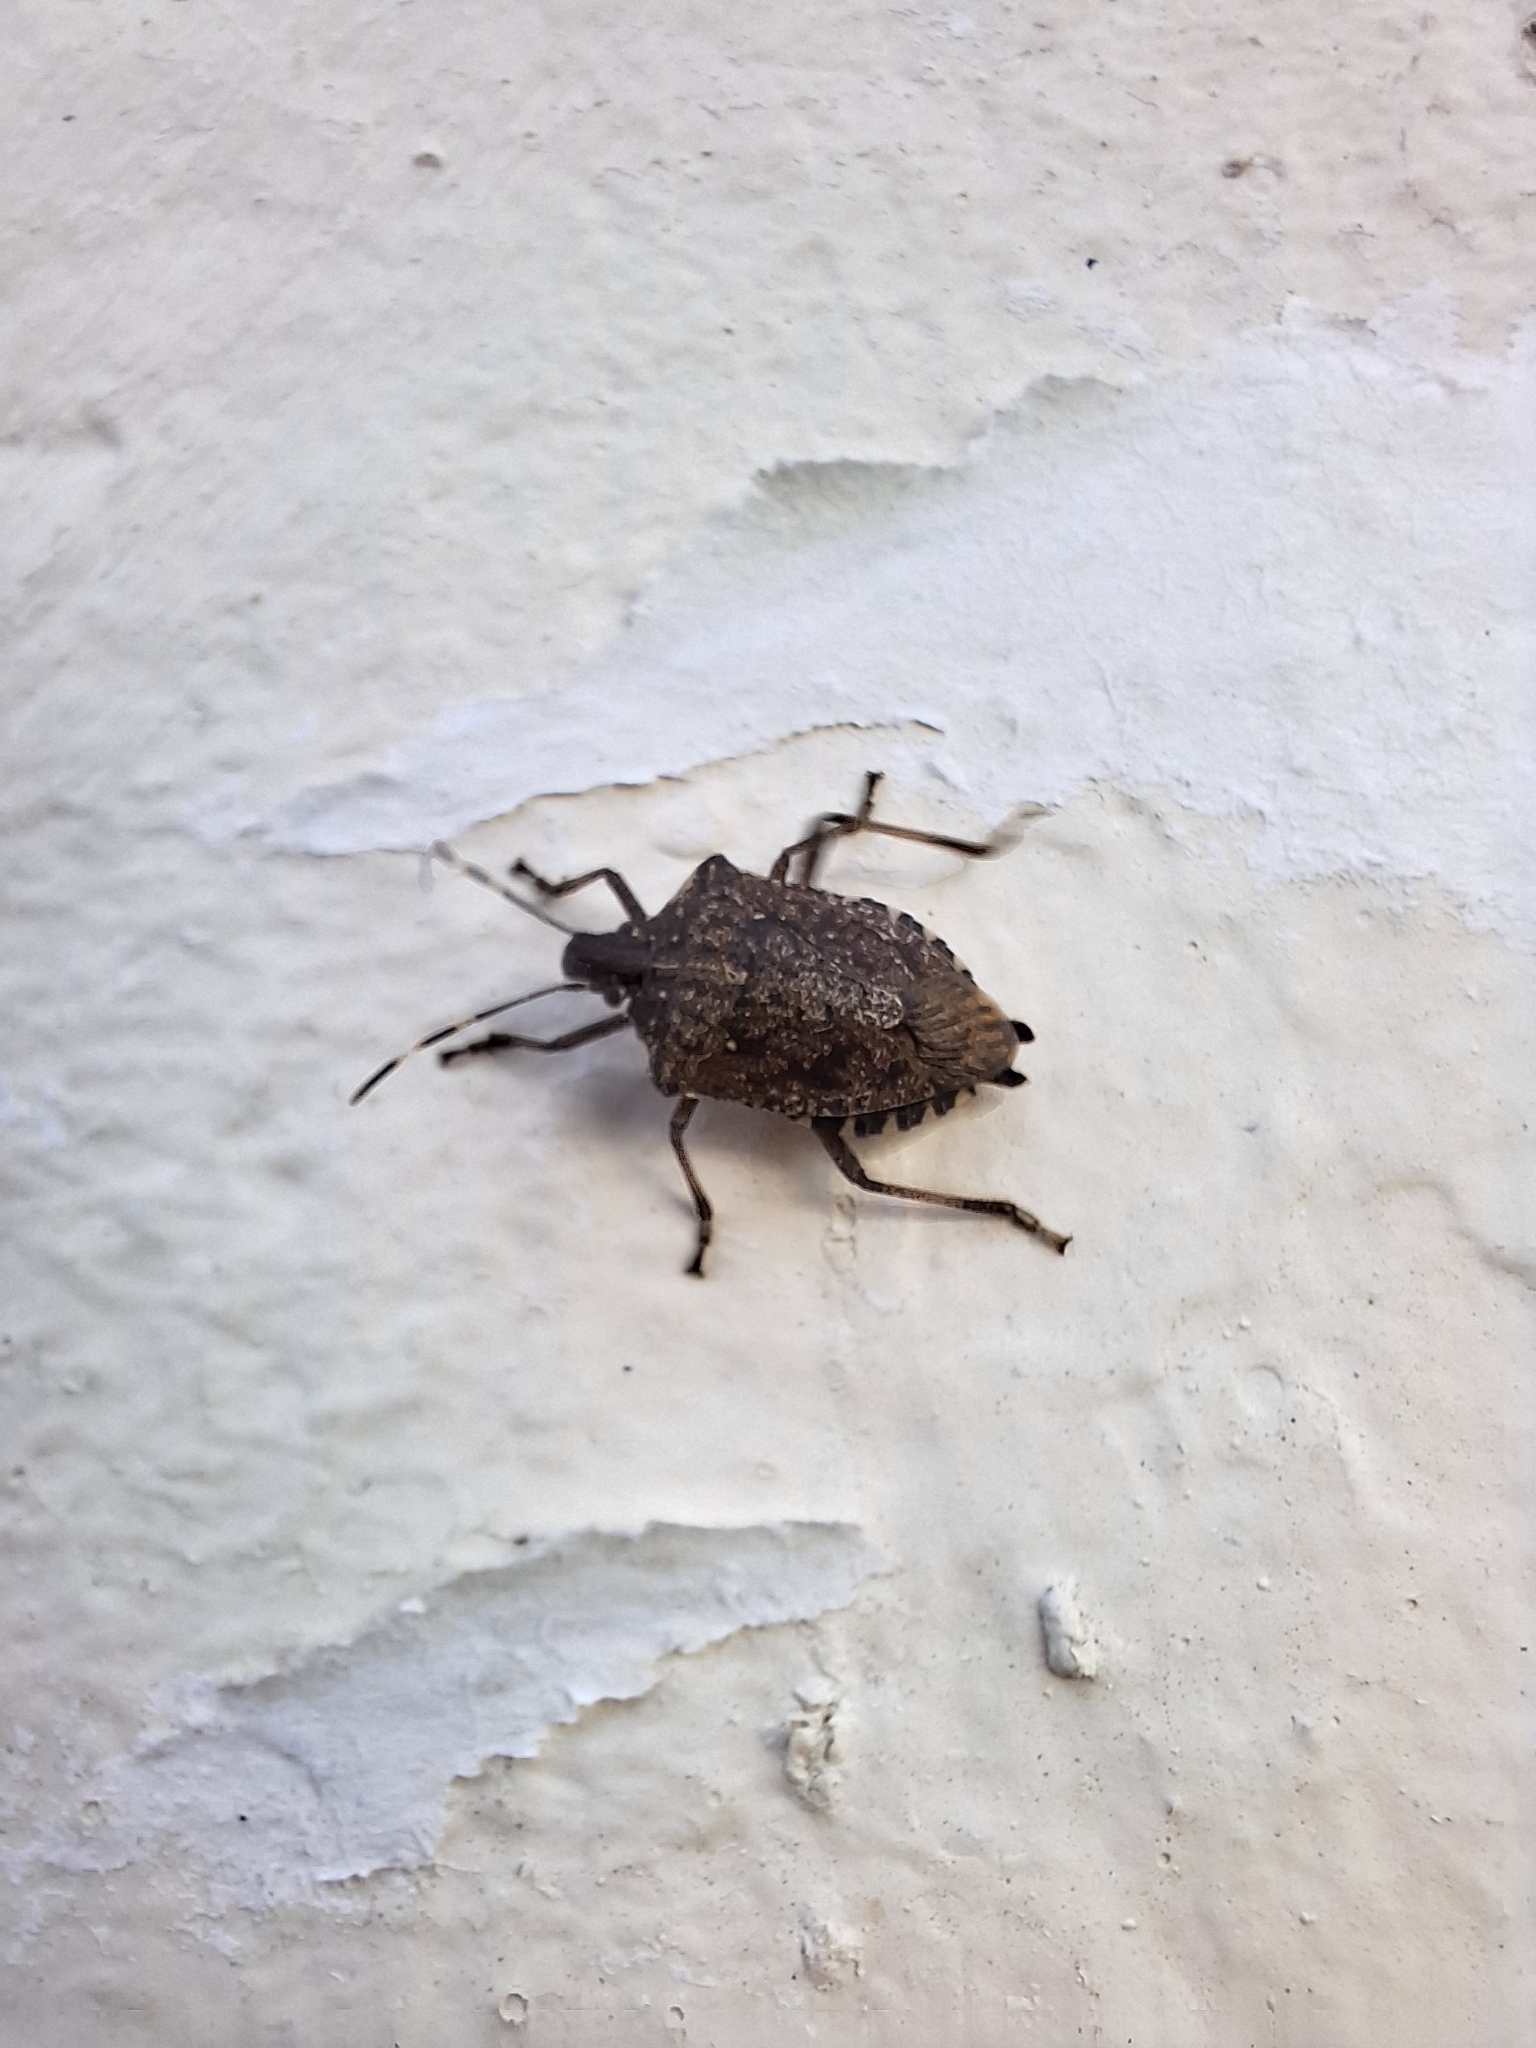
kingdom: Animalia
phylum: Arthropoda
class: Insecta
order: Hemiptera
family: Pentatomidae
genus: Halyomorpha
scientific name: Halyomorpha halys
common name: Brown marmorated stink bug
